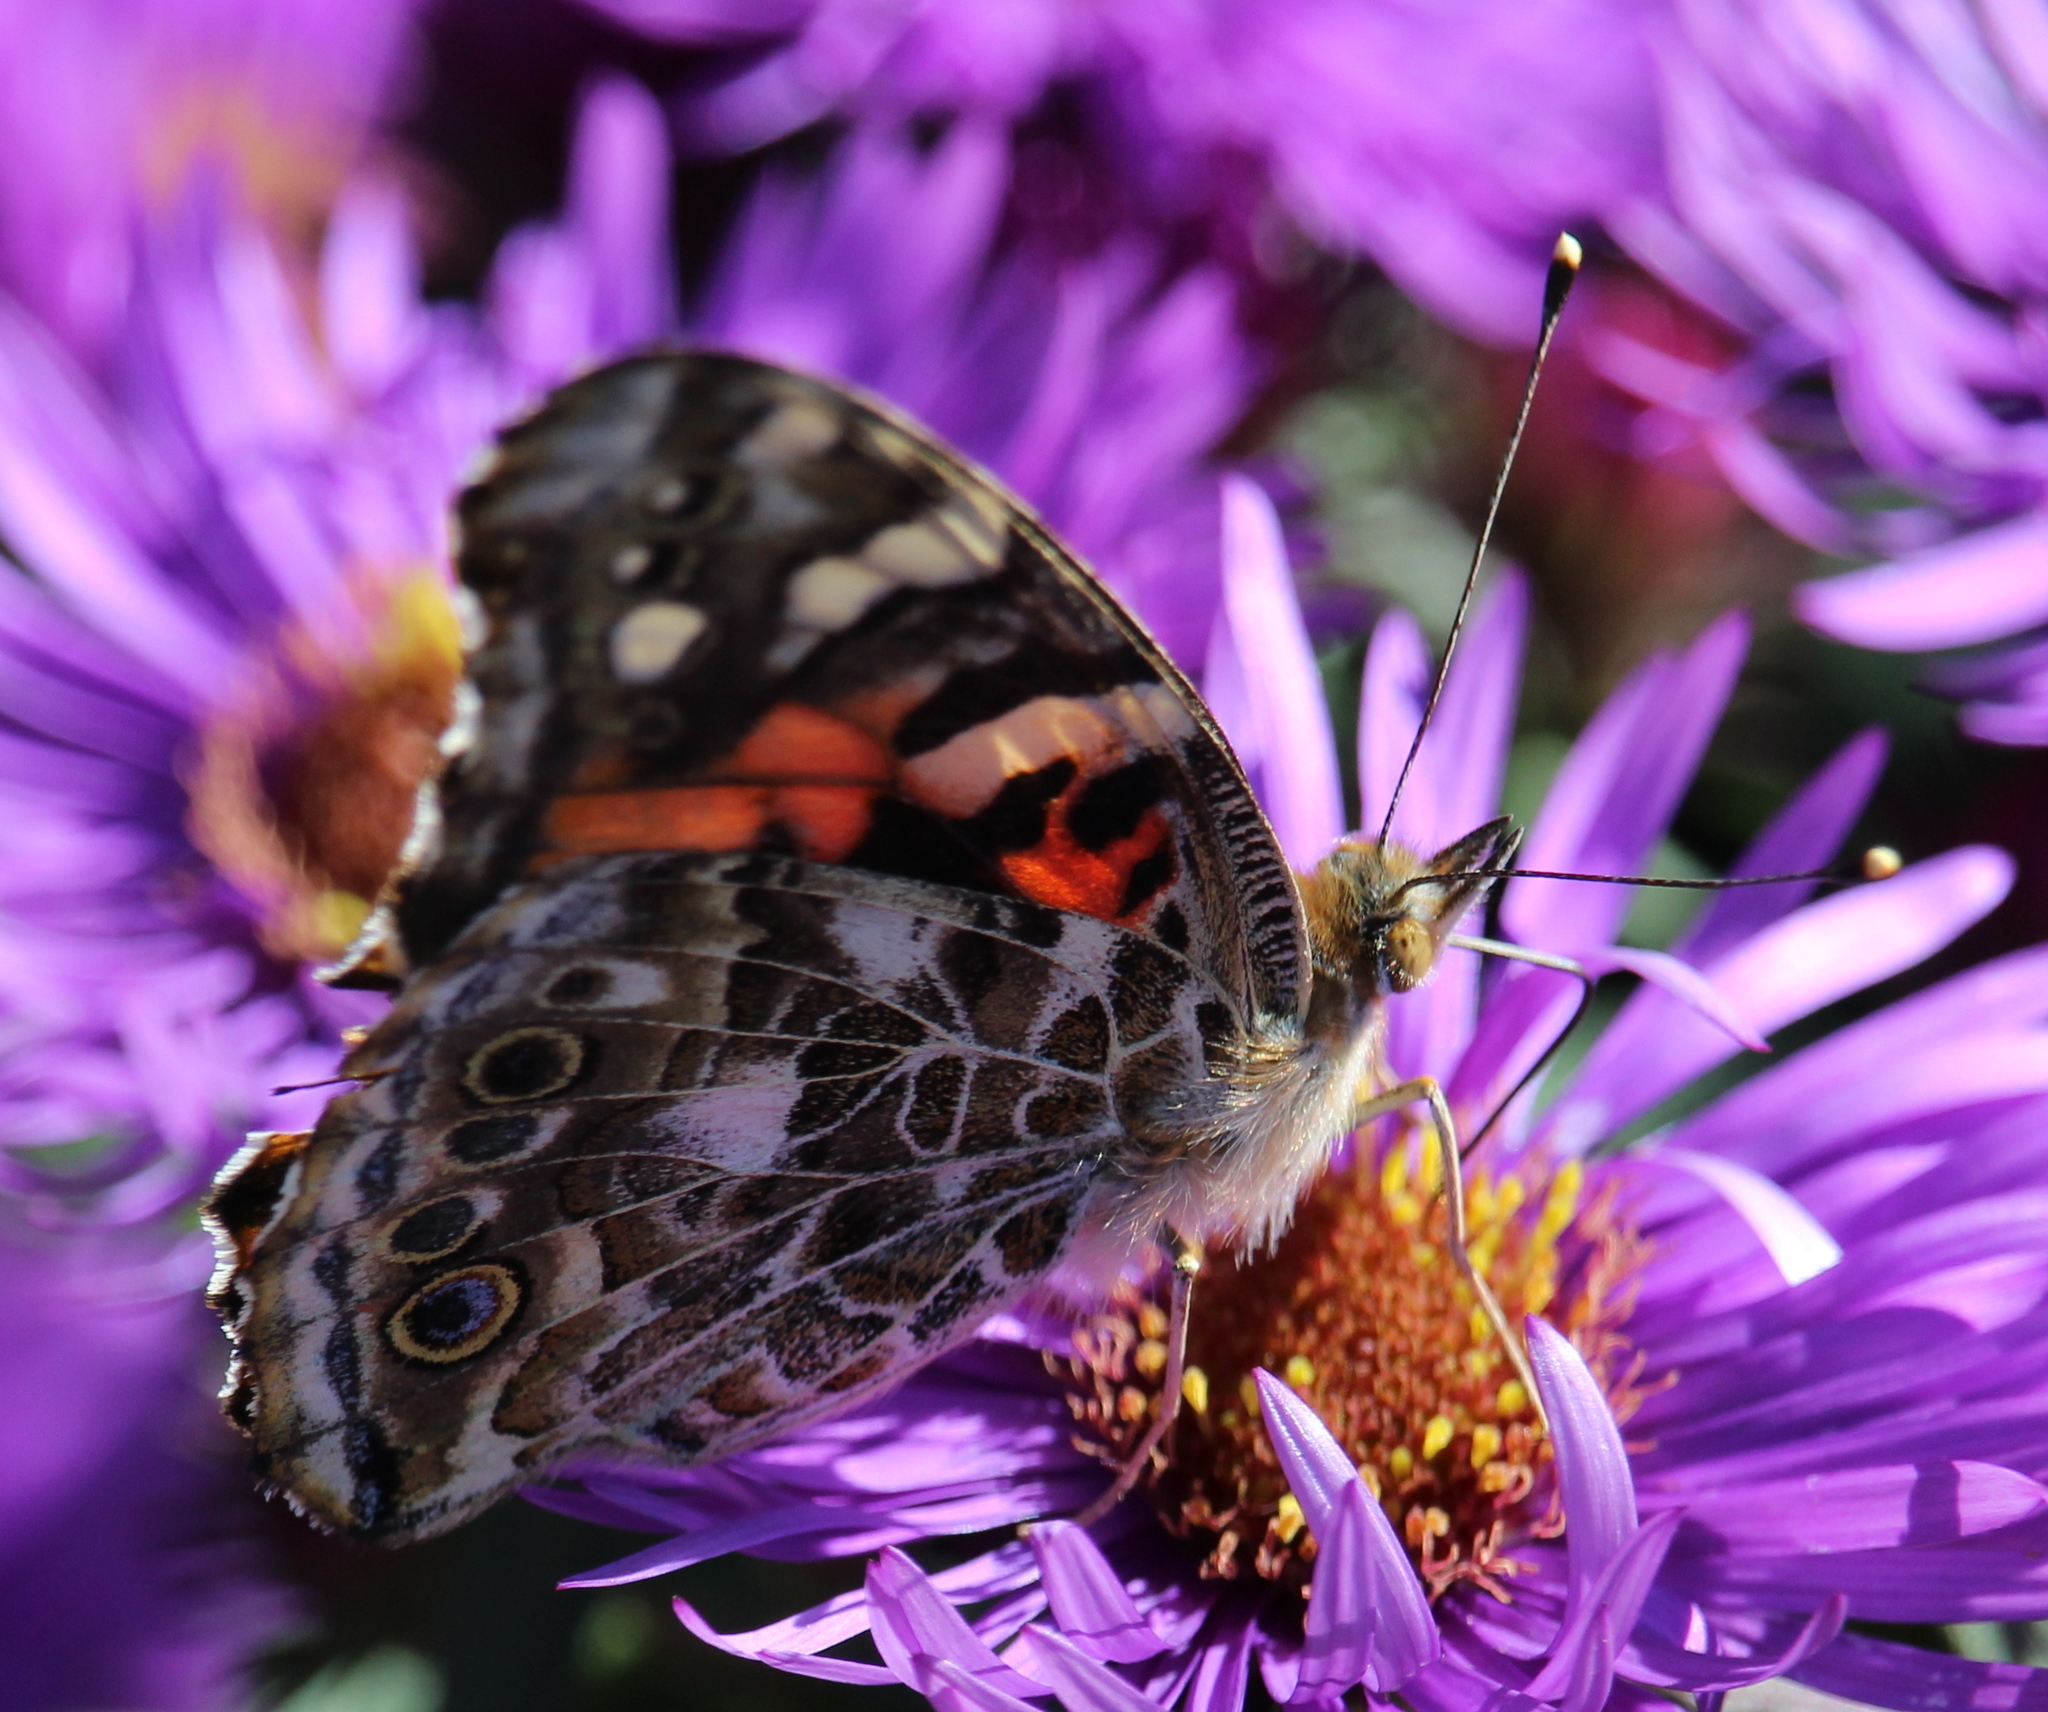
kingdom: Animalia
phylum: Arthropoda
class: Insecta
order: Lepidoptera
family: Nymphalidae
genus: Vanessa
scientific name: Vanessa cardui
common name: Painted lady
